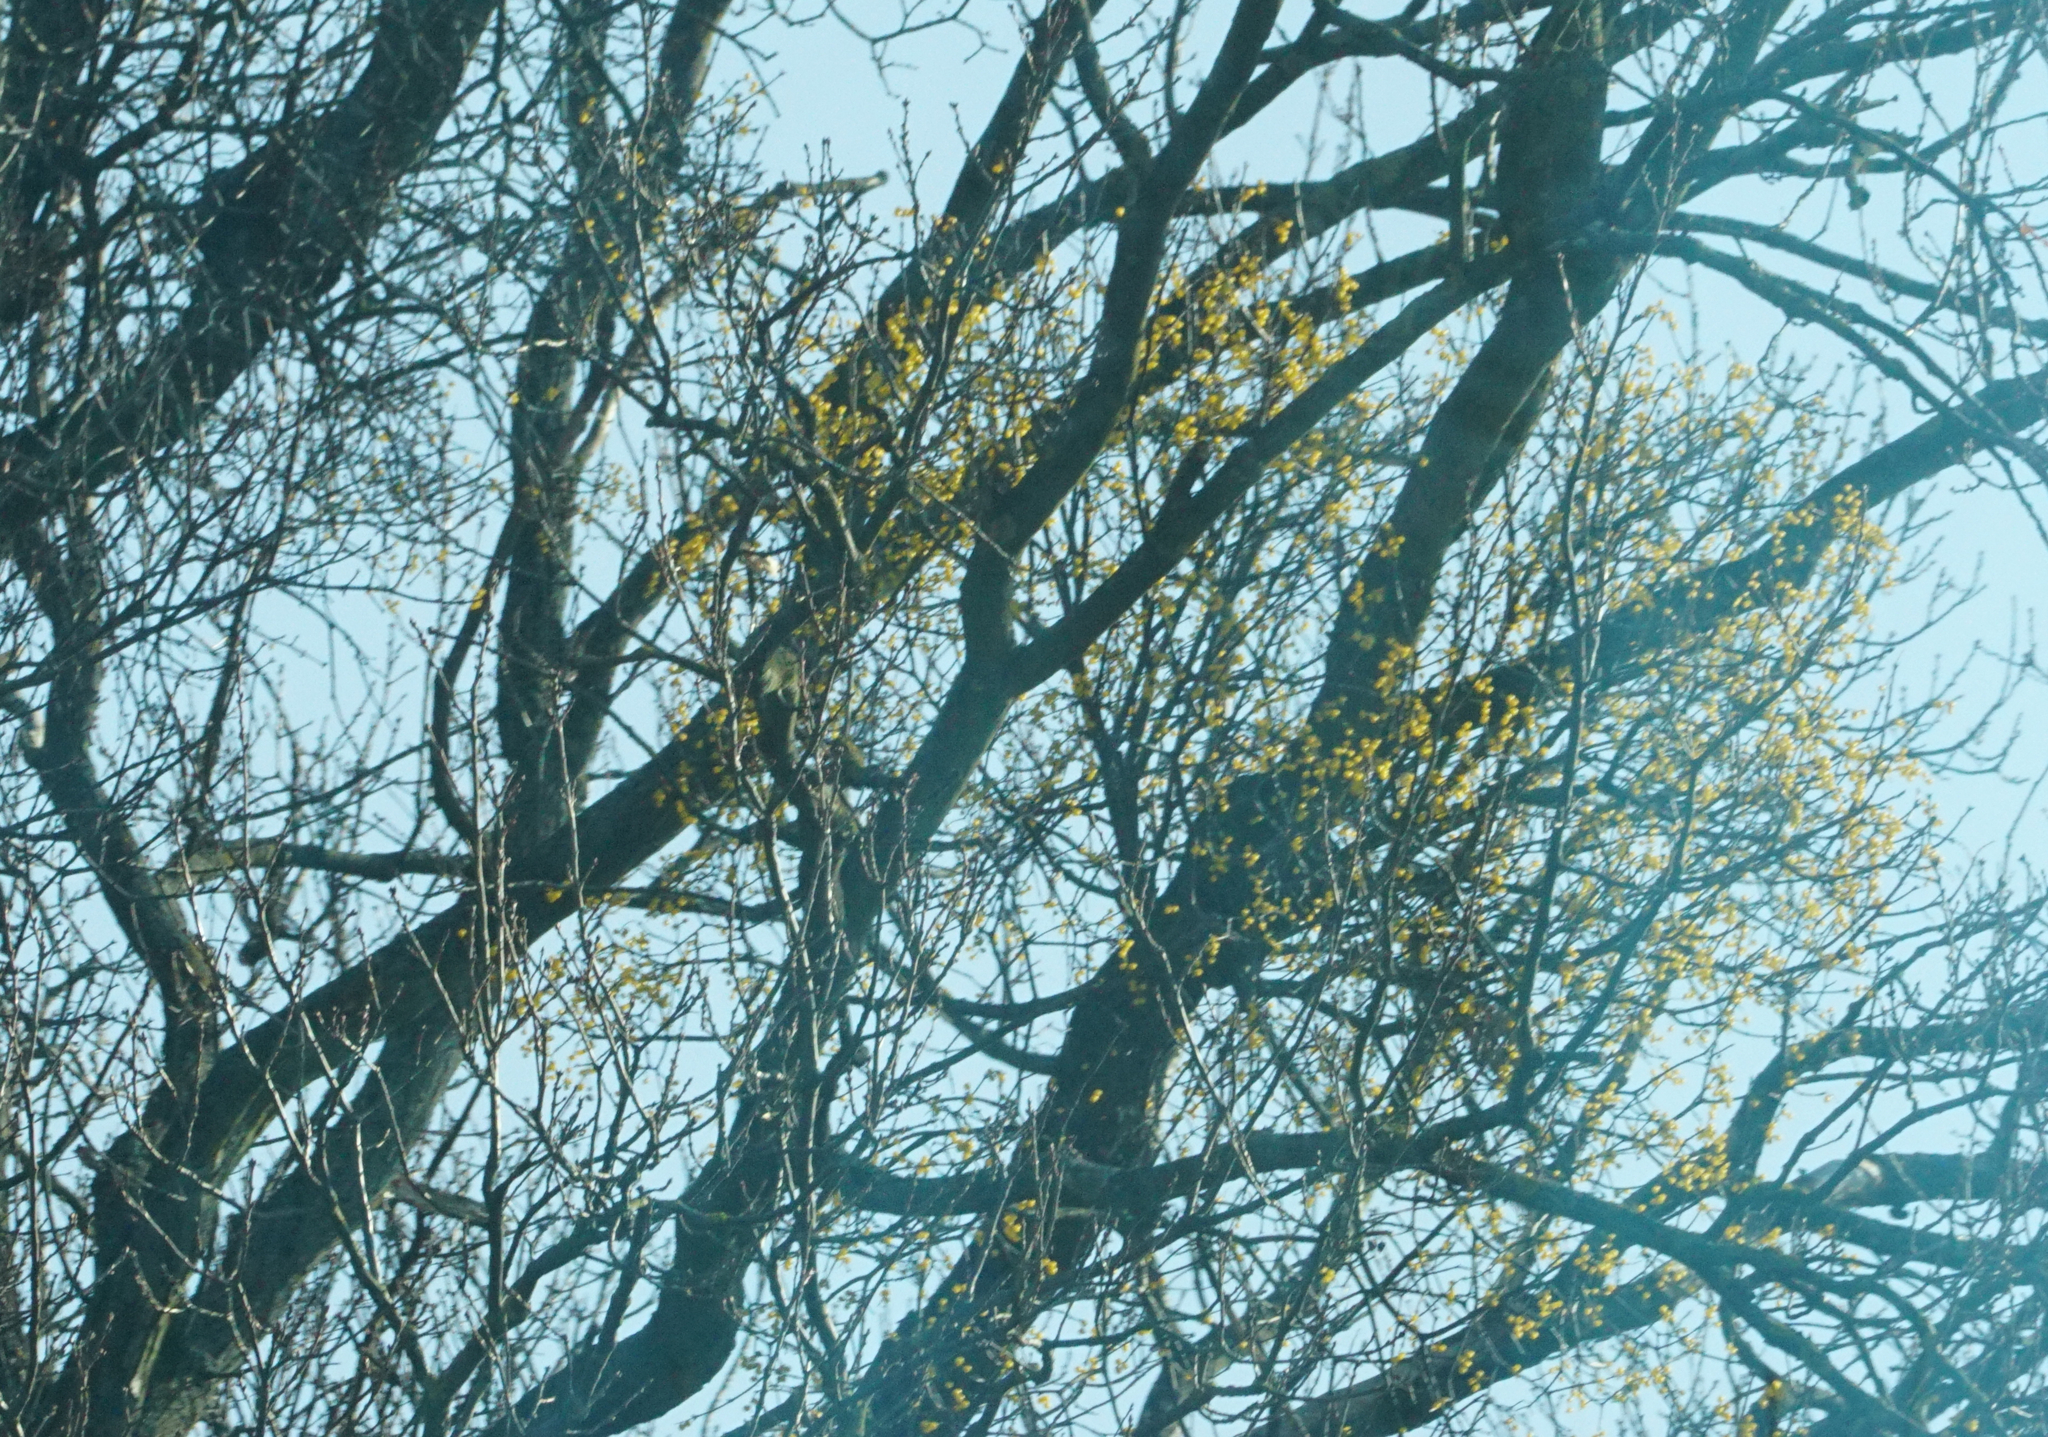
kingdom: Plantae
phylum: Tracheophyta
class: Magnoliopsida
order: Santalales
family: Loranthaceae
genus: Loranthus
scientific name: Loranthus europaeus
